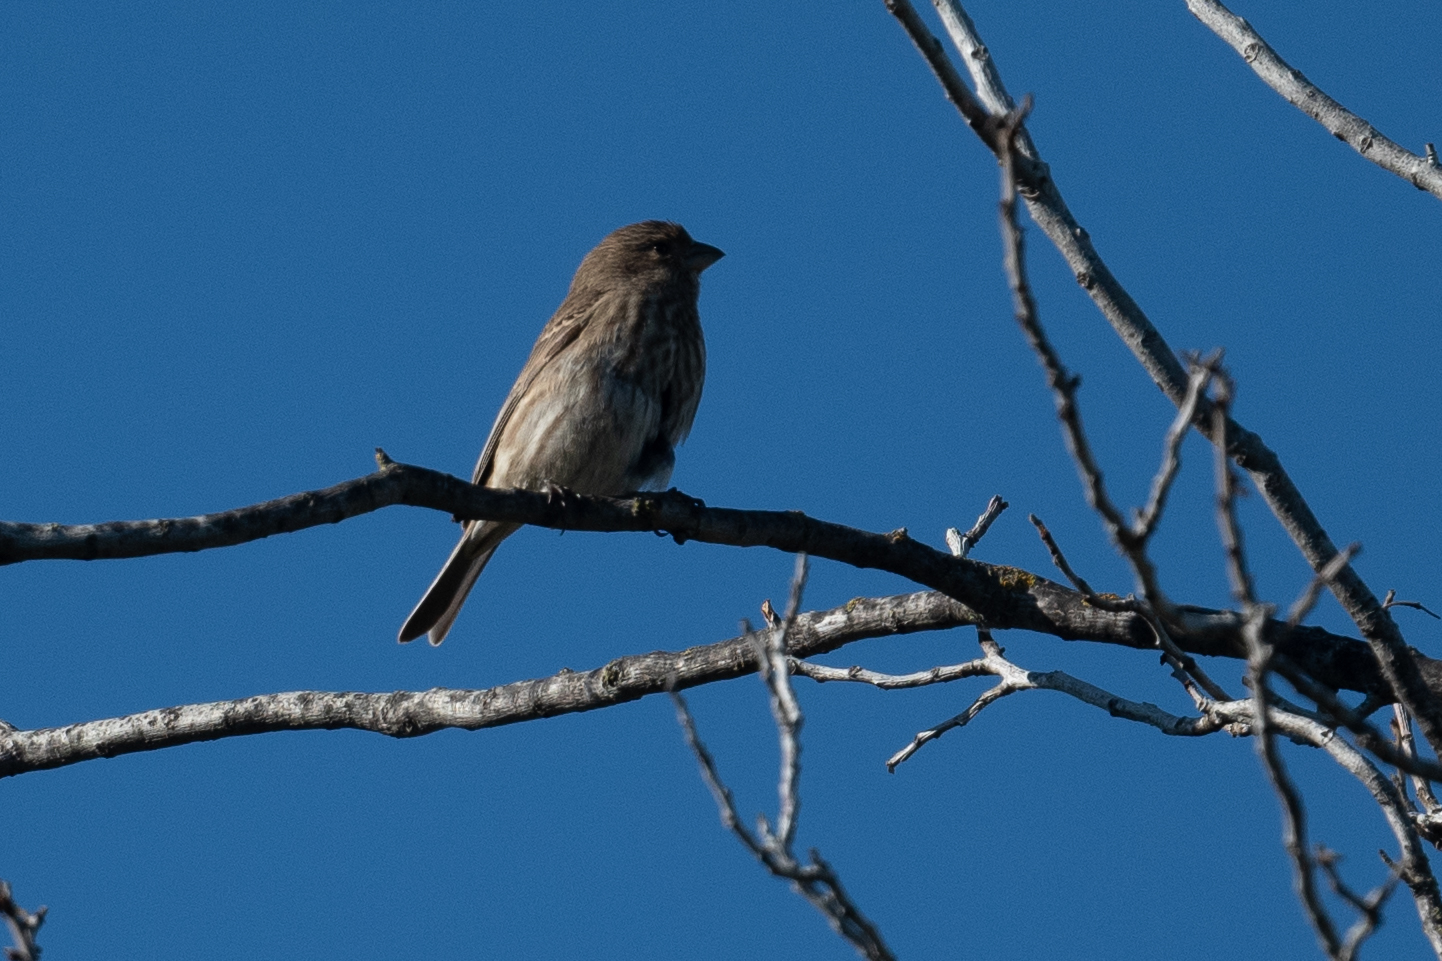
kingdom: Animalia
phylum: Chordata
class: Aves
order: Passeriformes
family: Fringillidae
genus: Haemorhous
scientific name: Haemorhous mexicanus
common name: House finch
